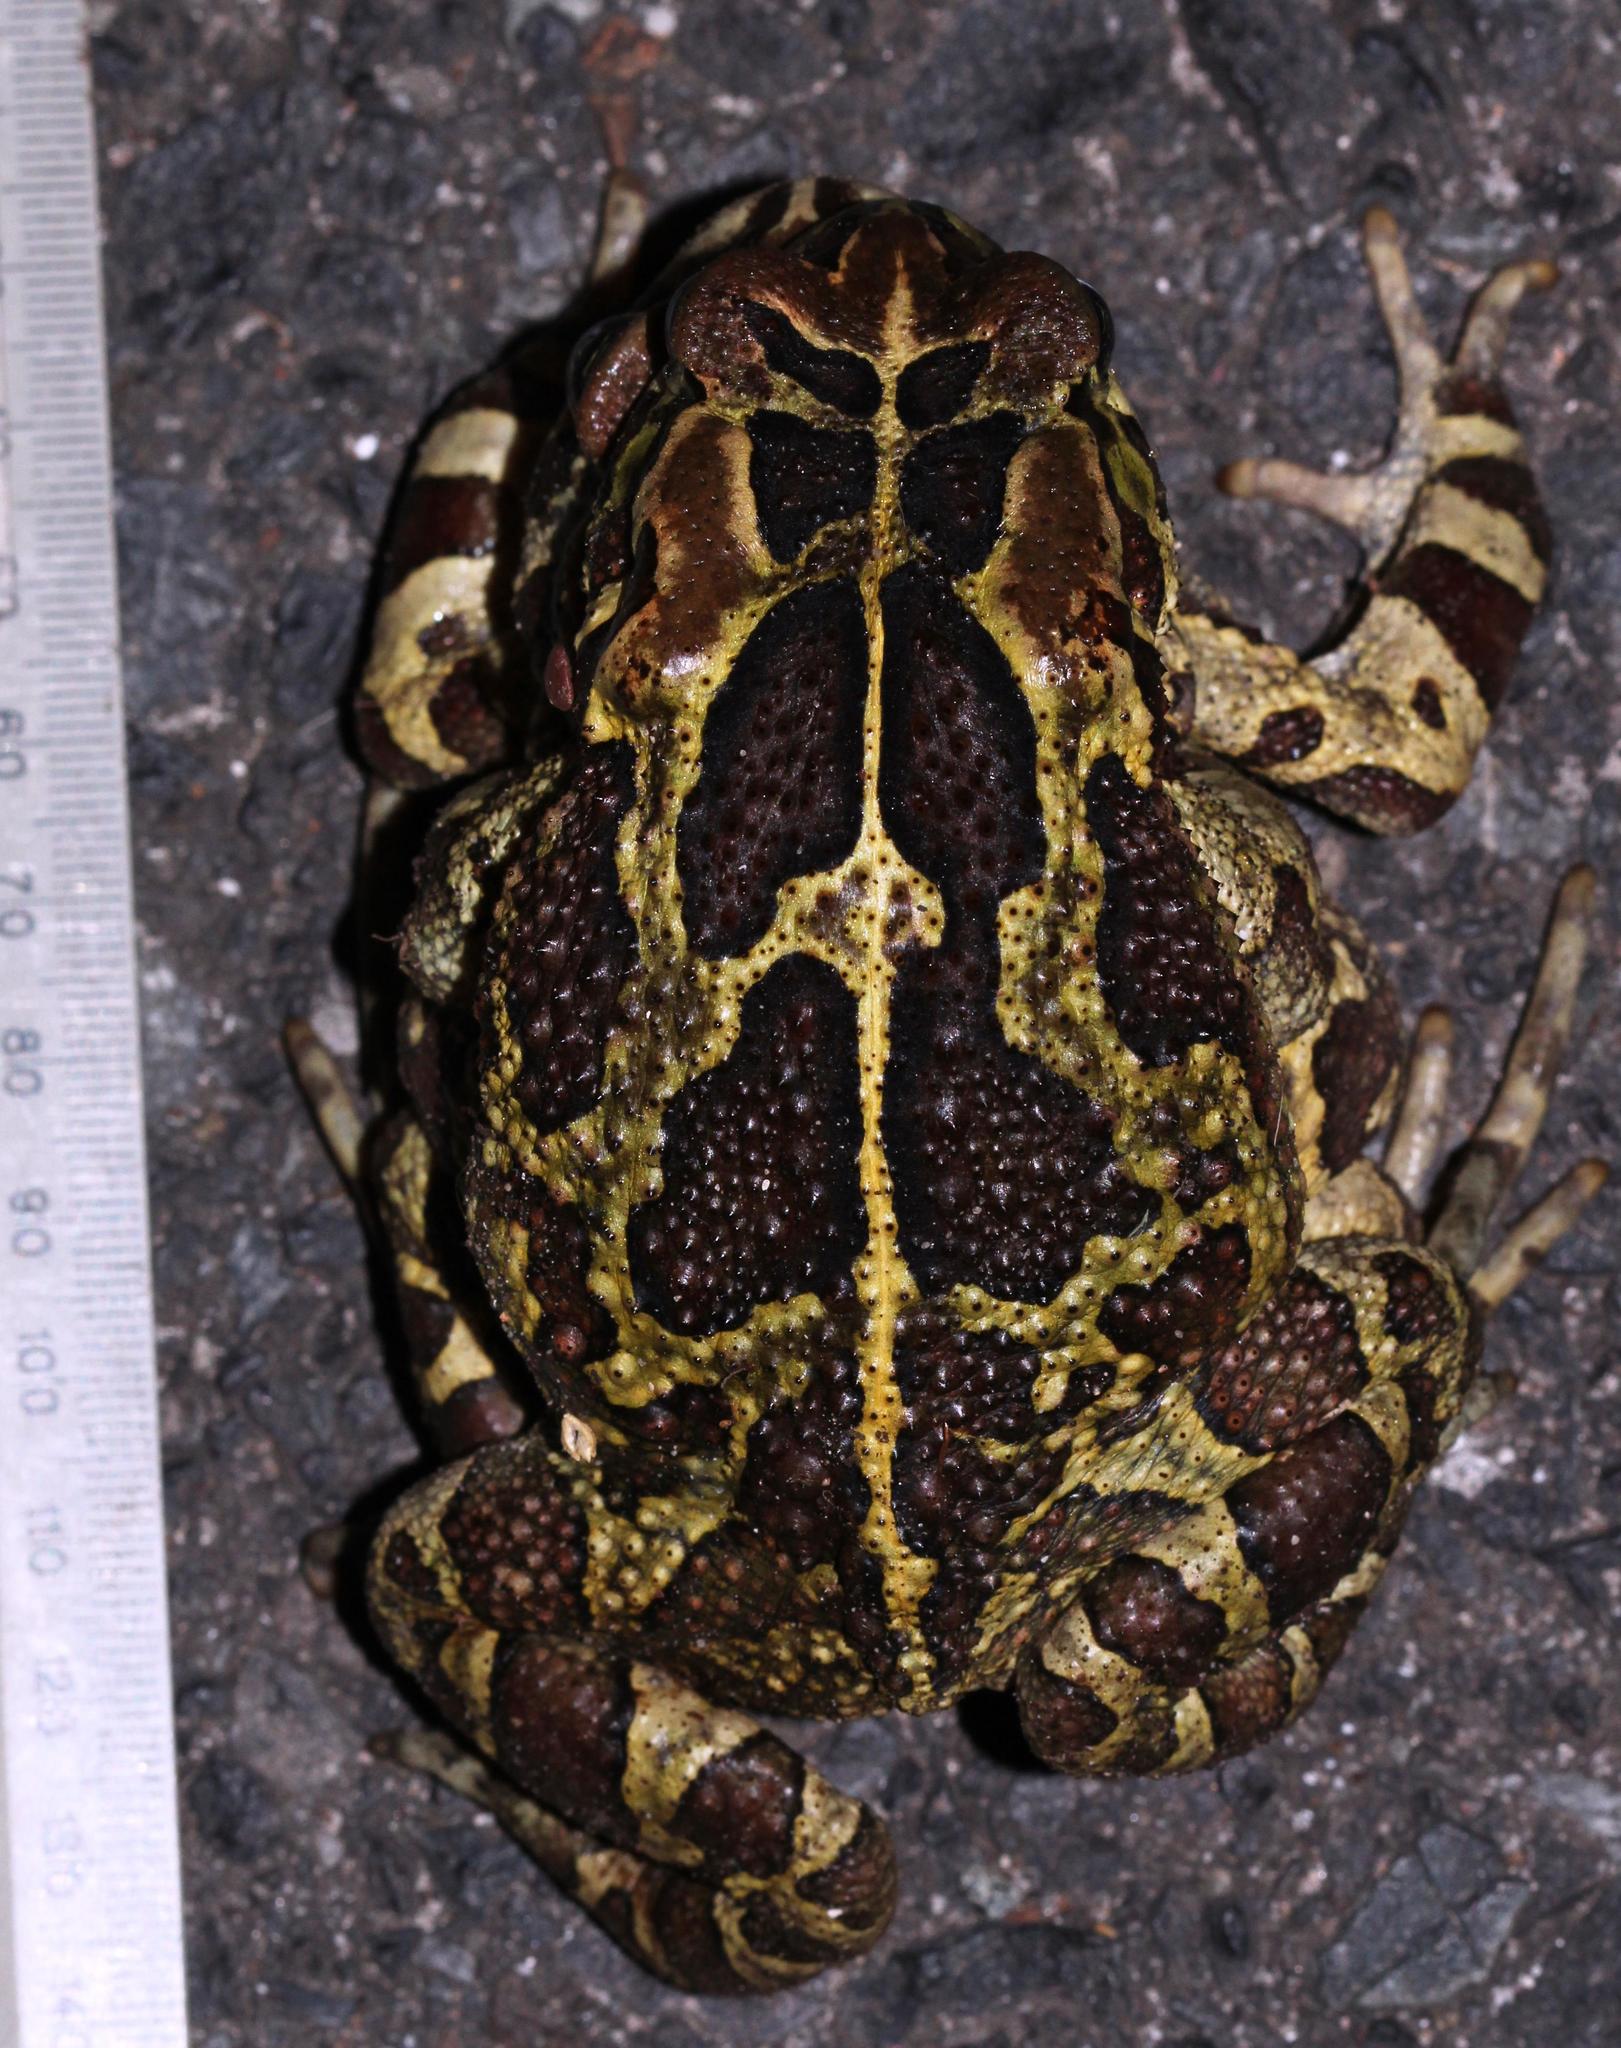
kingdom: Animalia
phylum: Chordata
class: Amphibia
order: Anura
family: Bufonidae
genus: Sclerophrys
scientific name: Sclerophrys pantherina
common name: Panther toad
